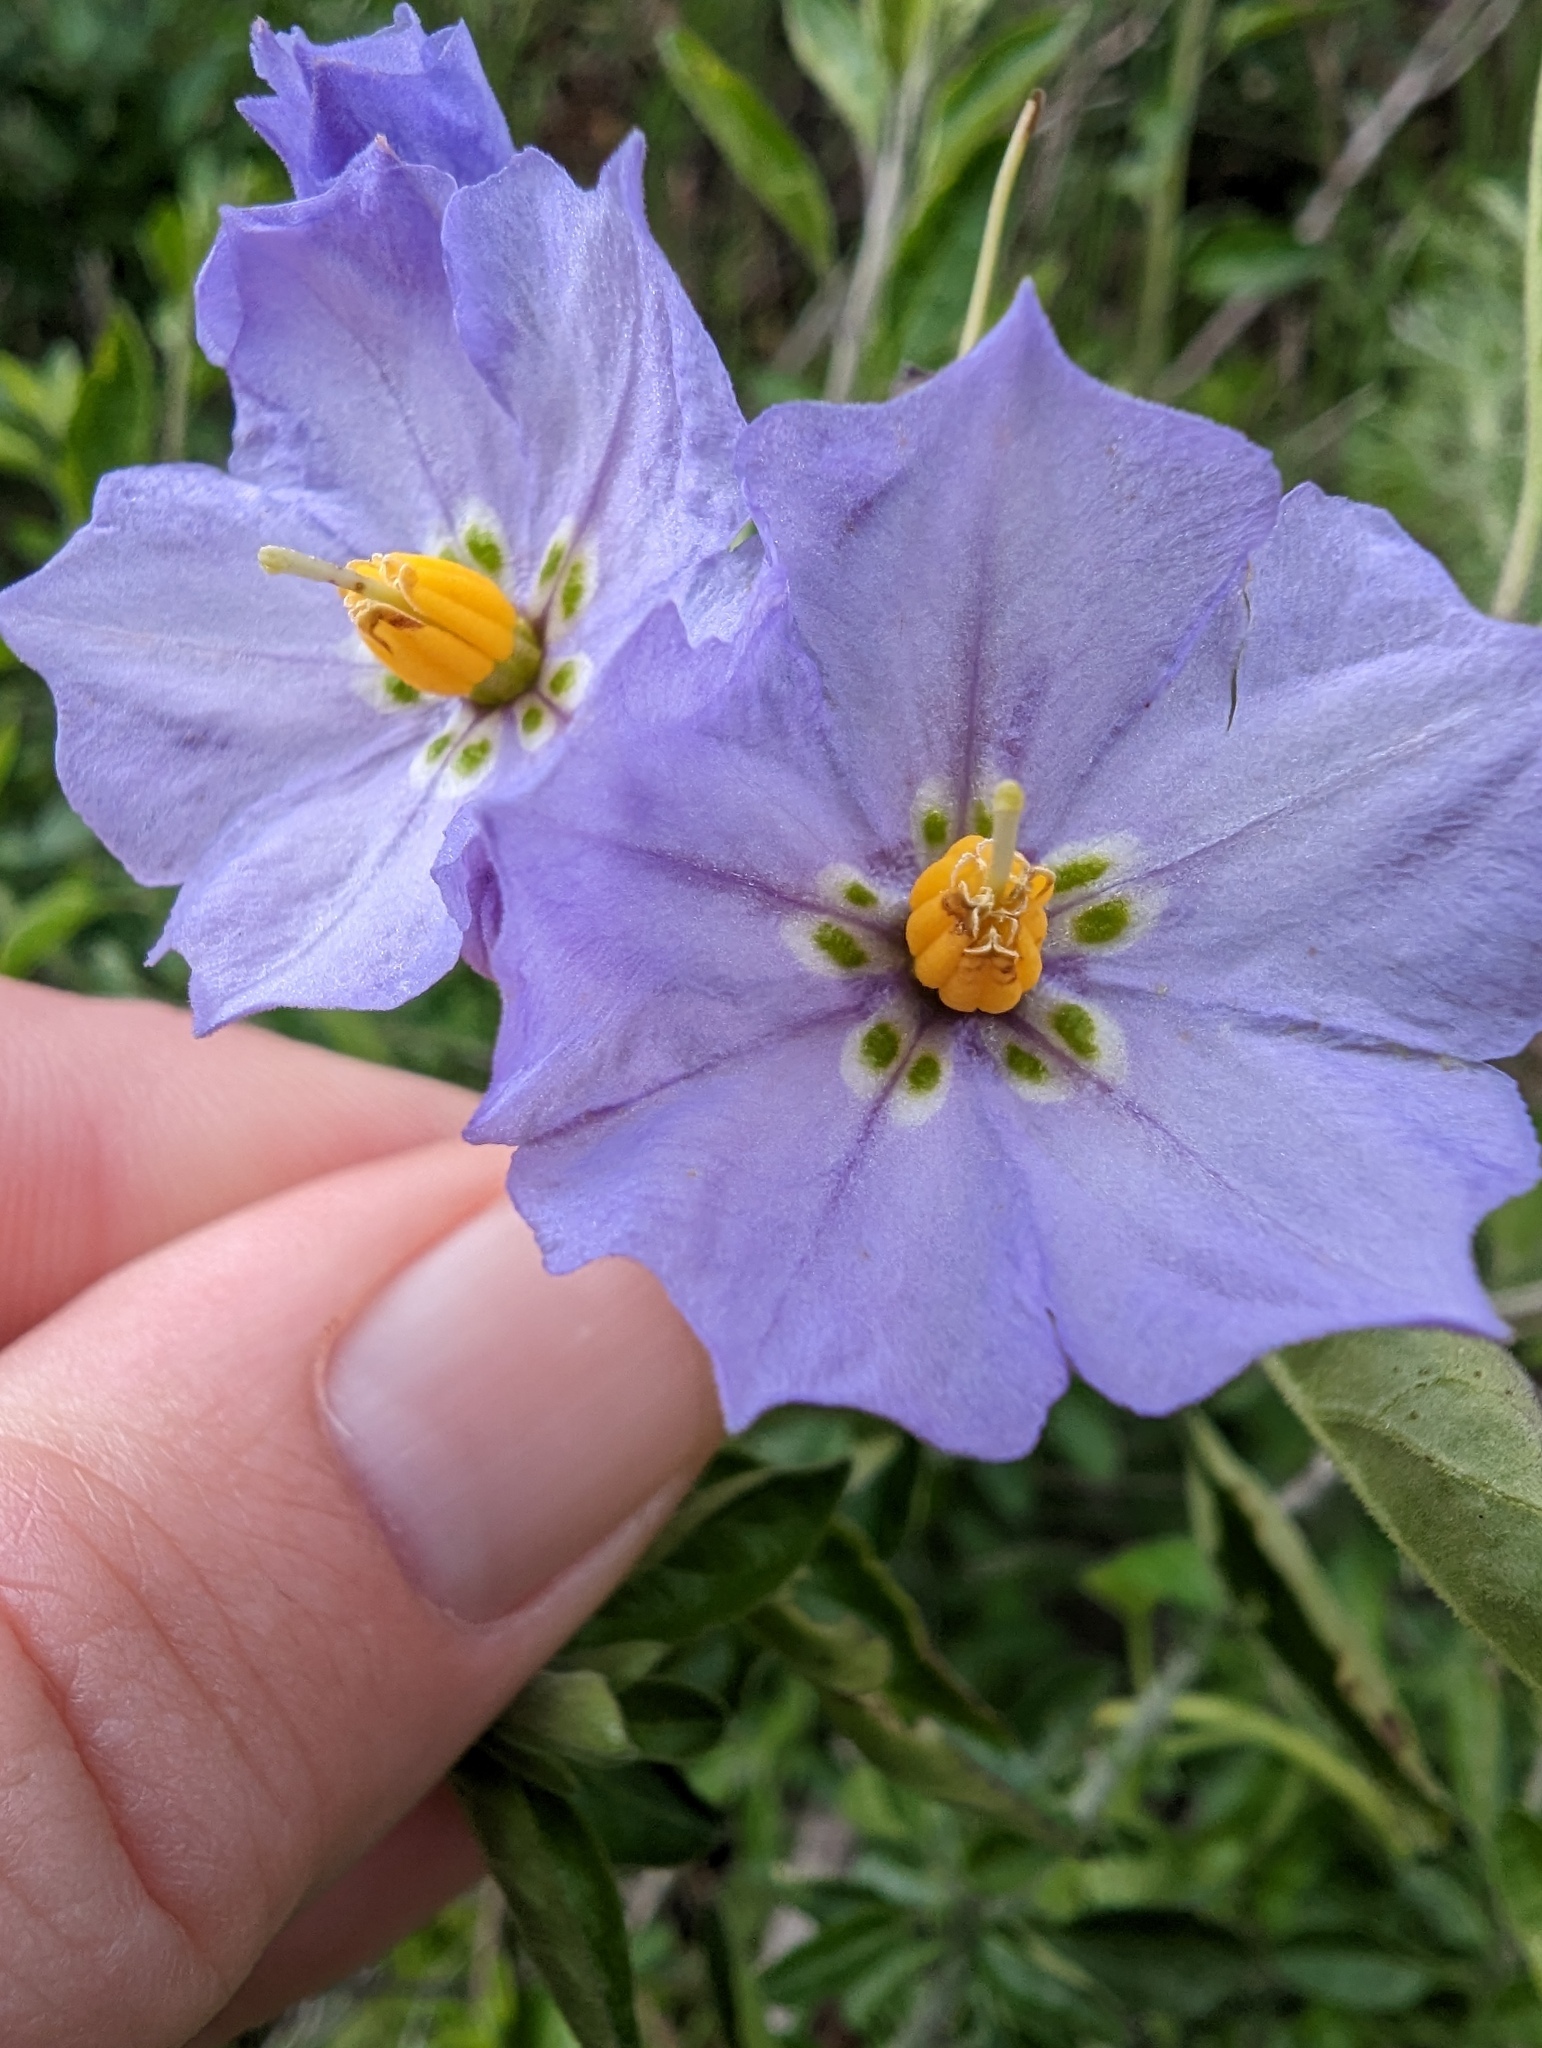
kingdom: Plantae
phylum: Tracheophyta
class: Magnoliopsida
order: Solanales
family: Solanaceae
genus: Solanum
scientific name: Solanum umbelliferum
